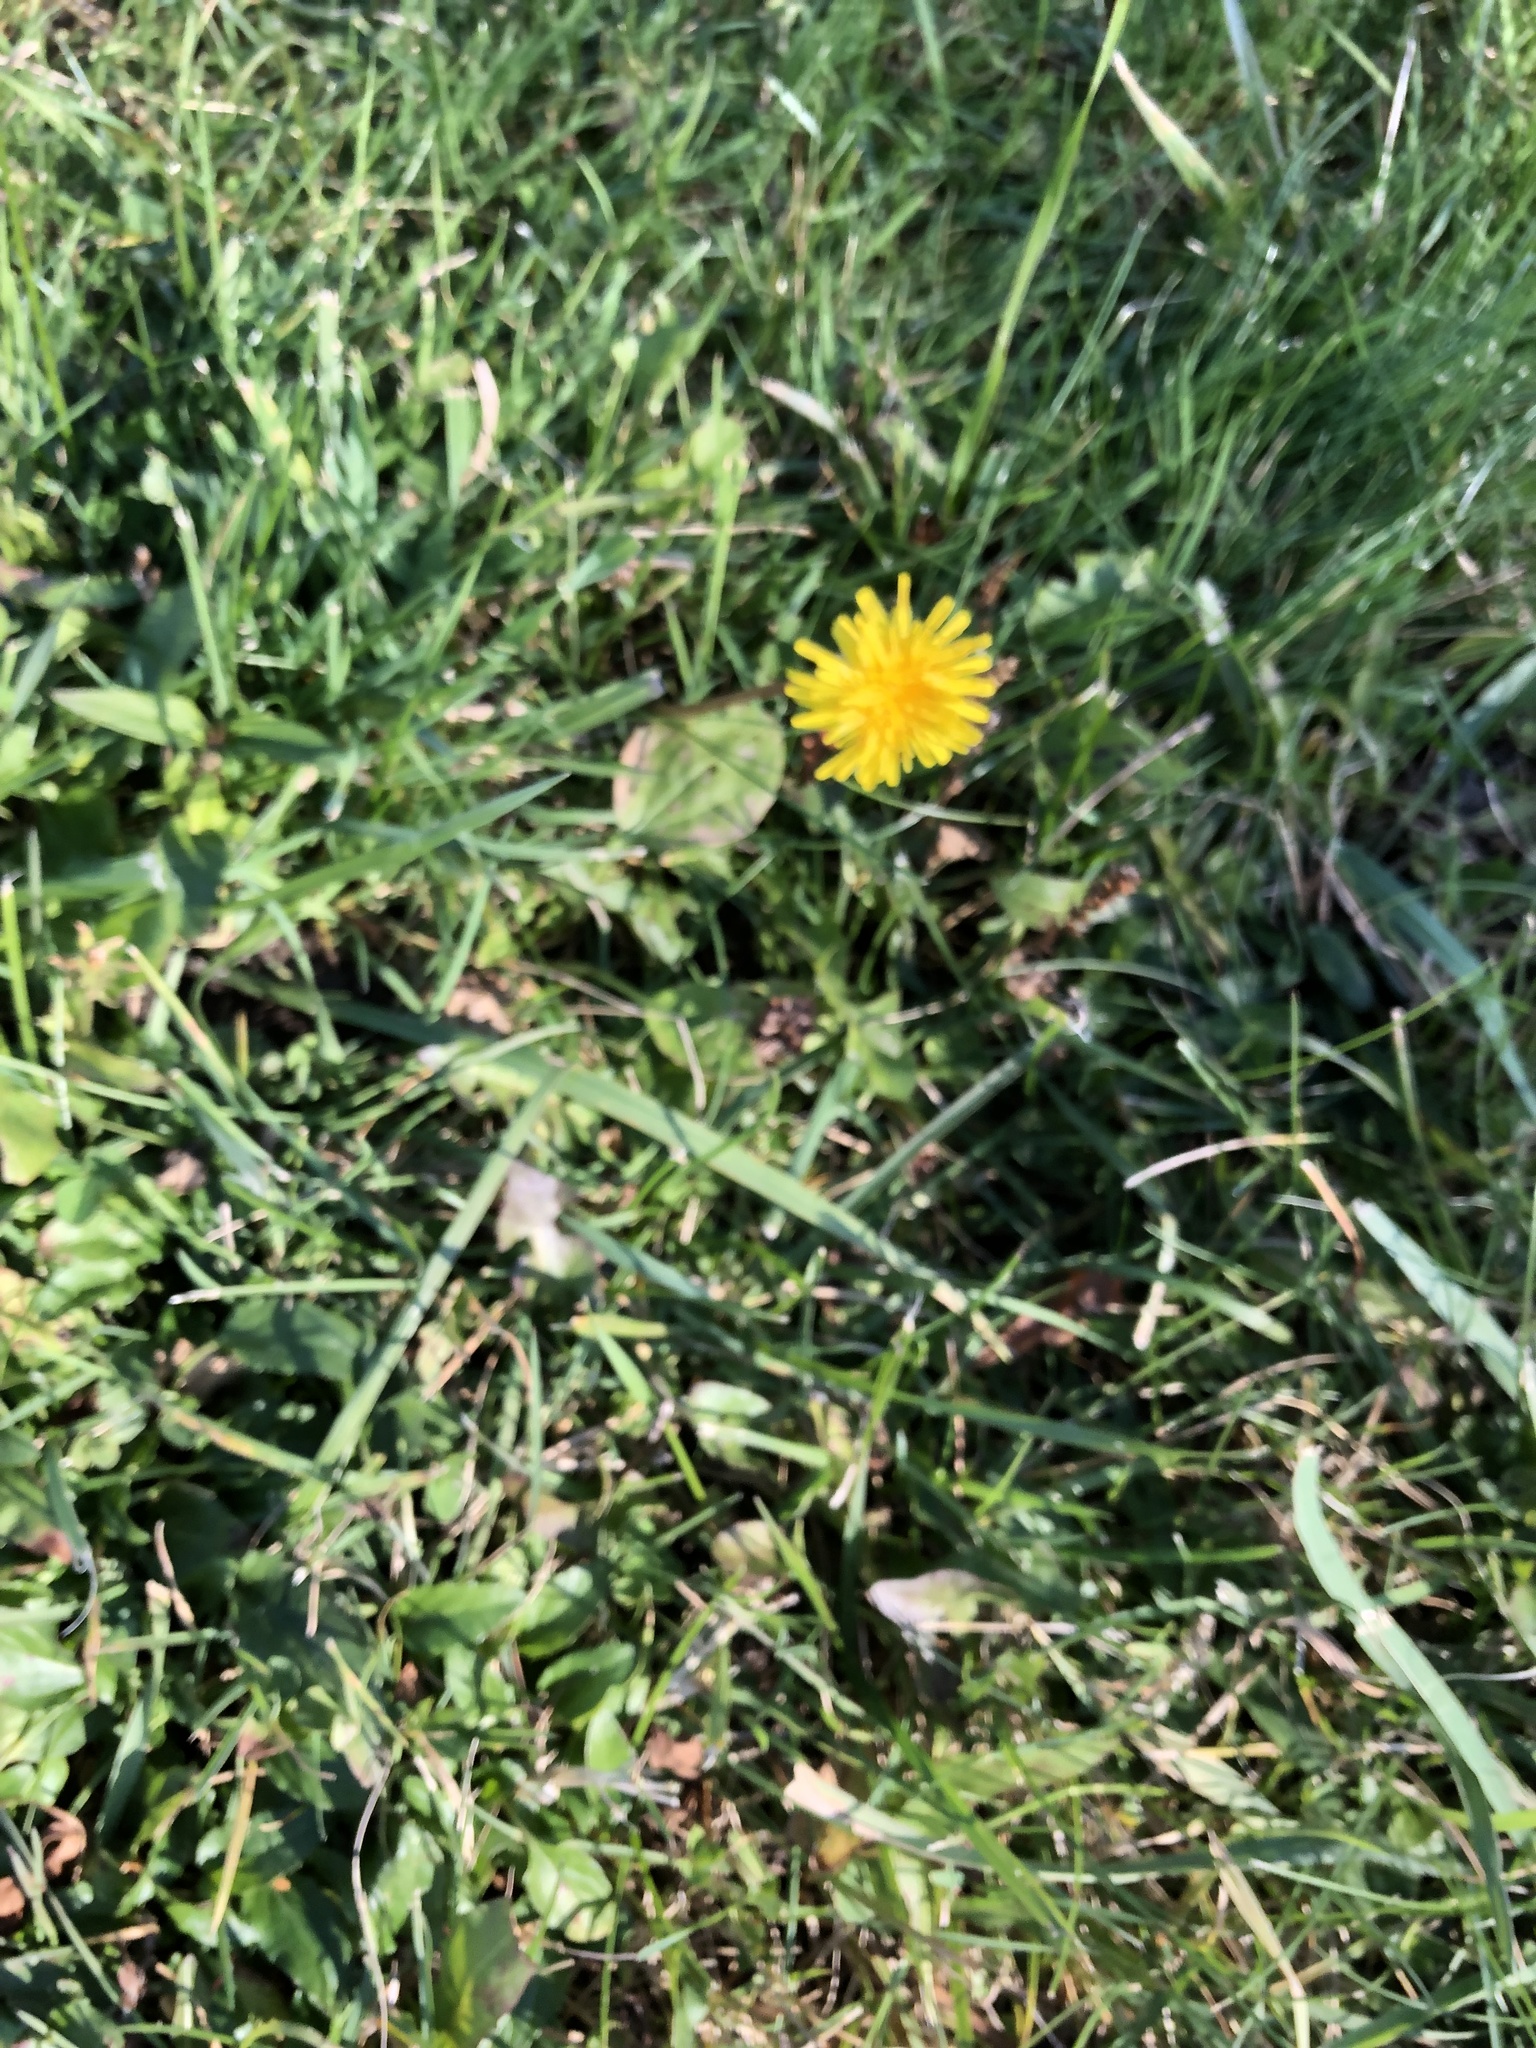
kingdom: Plantae
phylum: Tracheophyta
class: Magnoliopsida
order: Asterales
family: Asteraceae
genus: Taraxacum
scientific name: Taraxacum officinale
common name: Common dandelion
